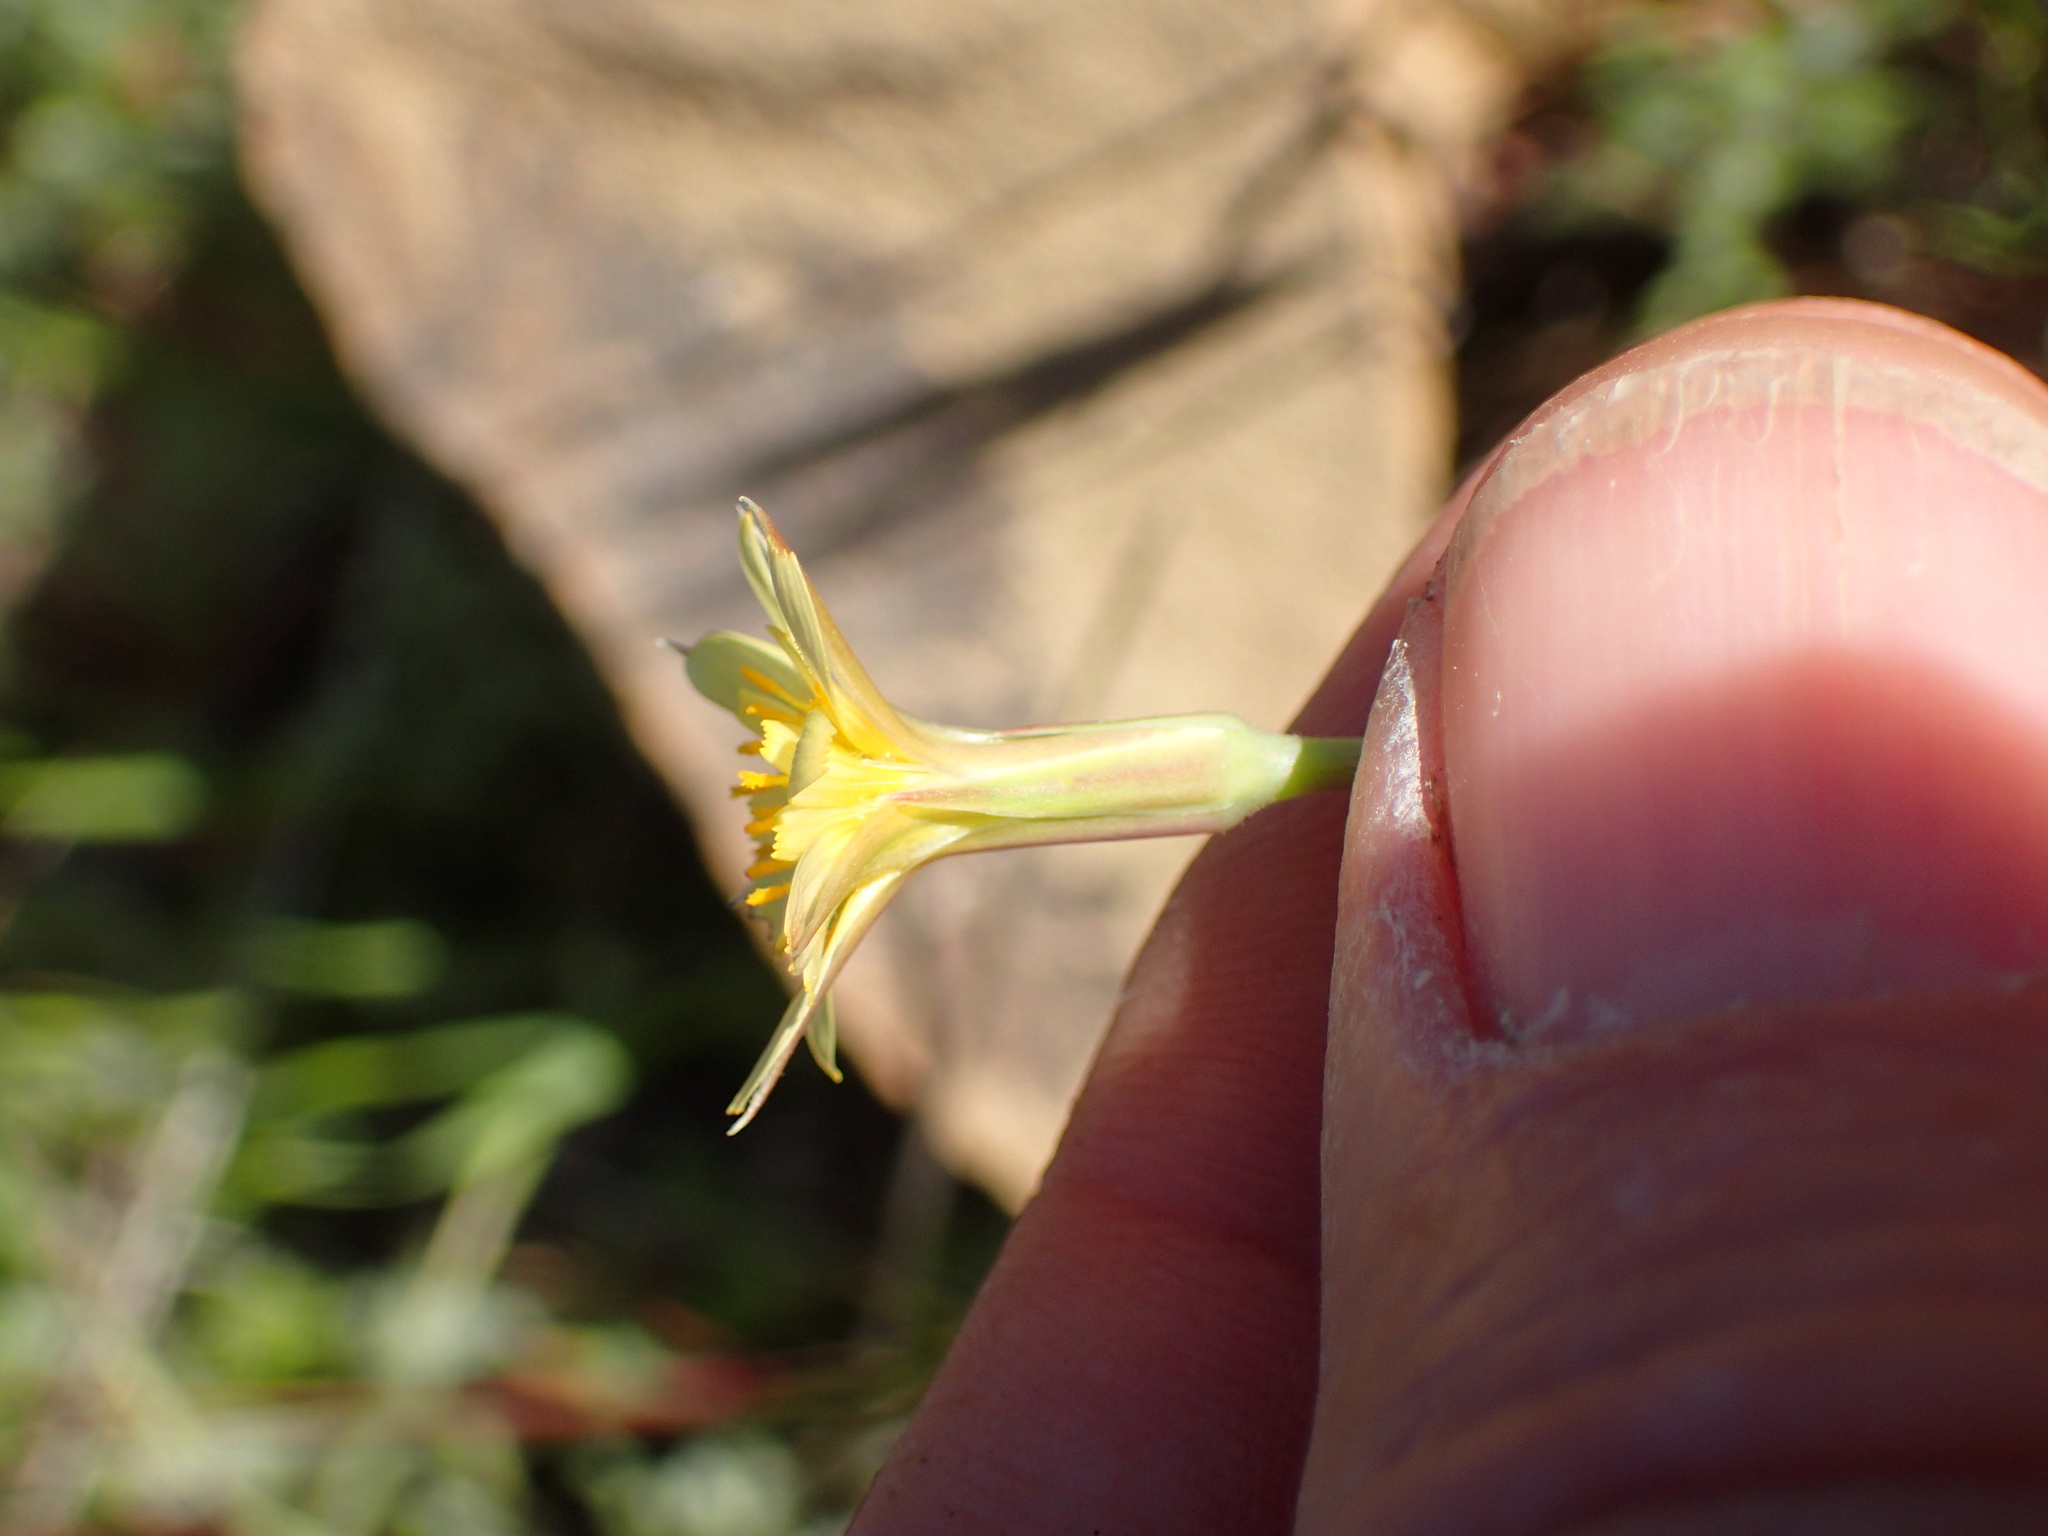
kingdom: Plantae
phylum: Tracheophyta
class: Magnoliopsida
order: Asterales
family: Asteraceae
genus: Microseris
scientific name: Microseris lindleyi
